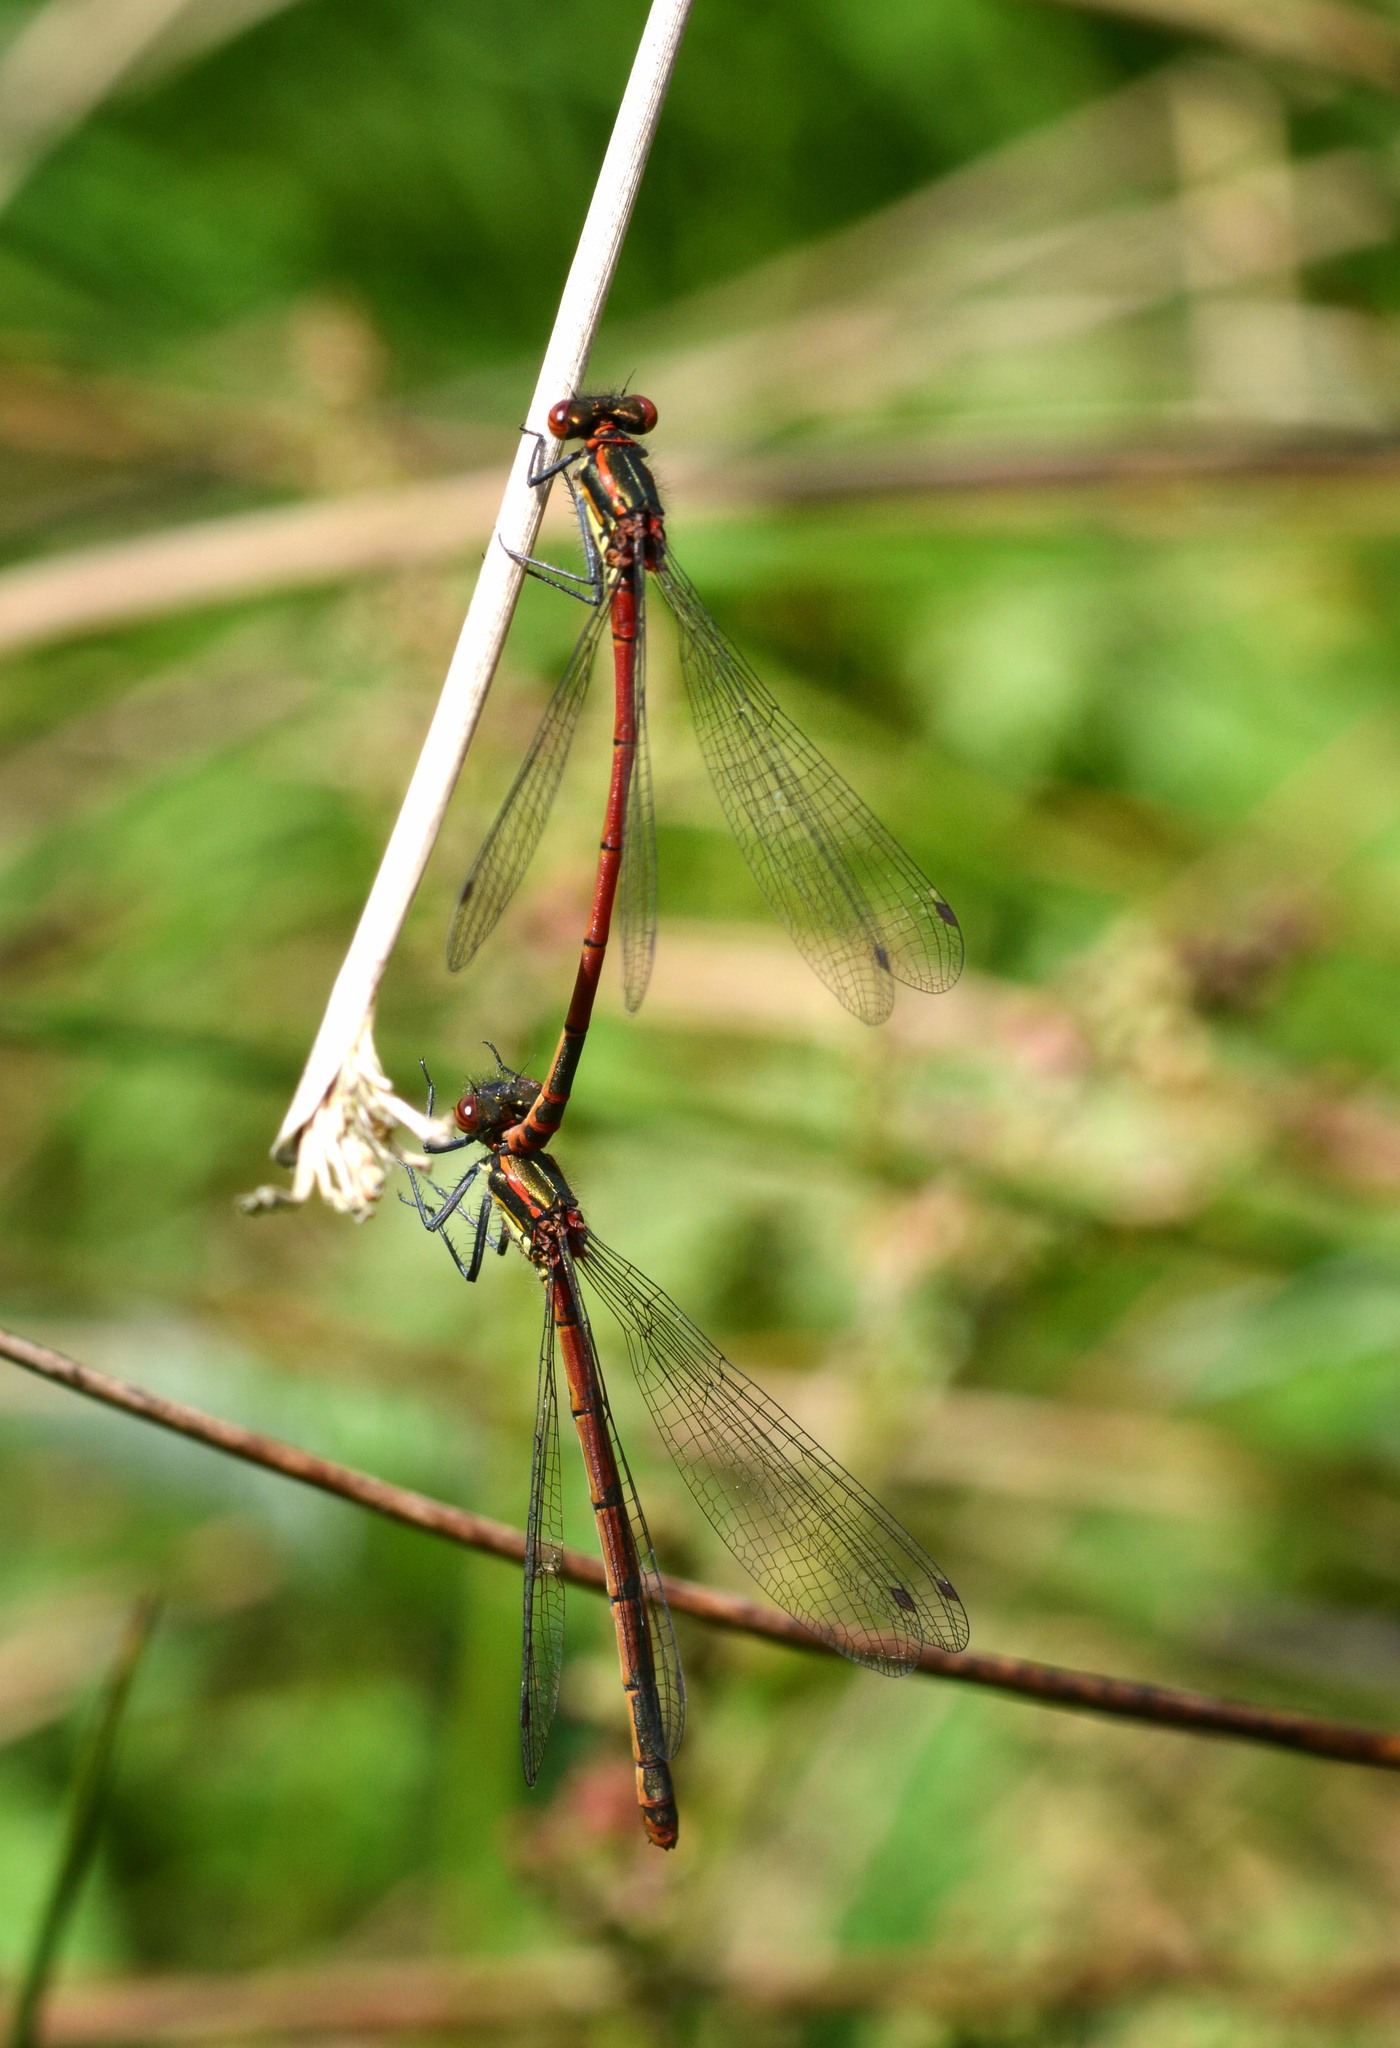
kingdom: Animalia
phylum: Arthropoda
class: Insecta
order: Odonata
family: Coenagrionidae
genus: Pyrrhosoma
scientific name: Pyrrhosoma nymphula
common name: Large red damsel
